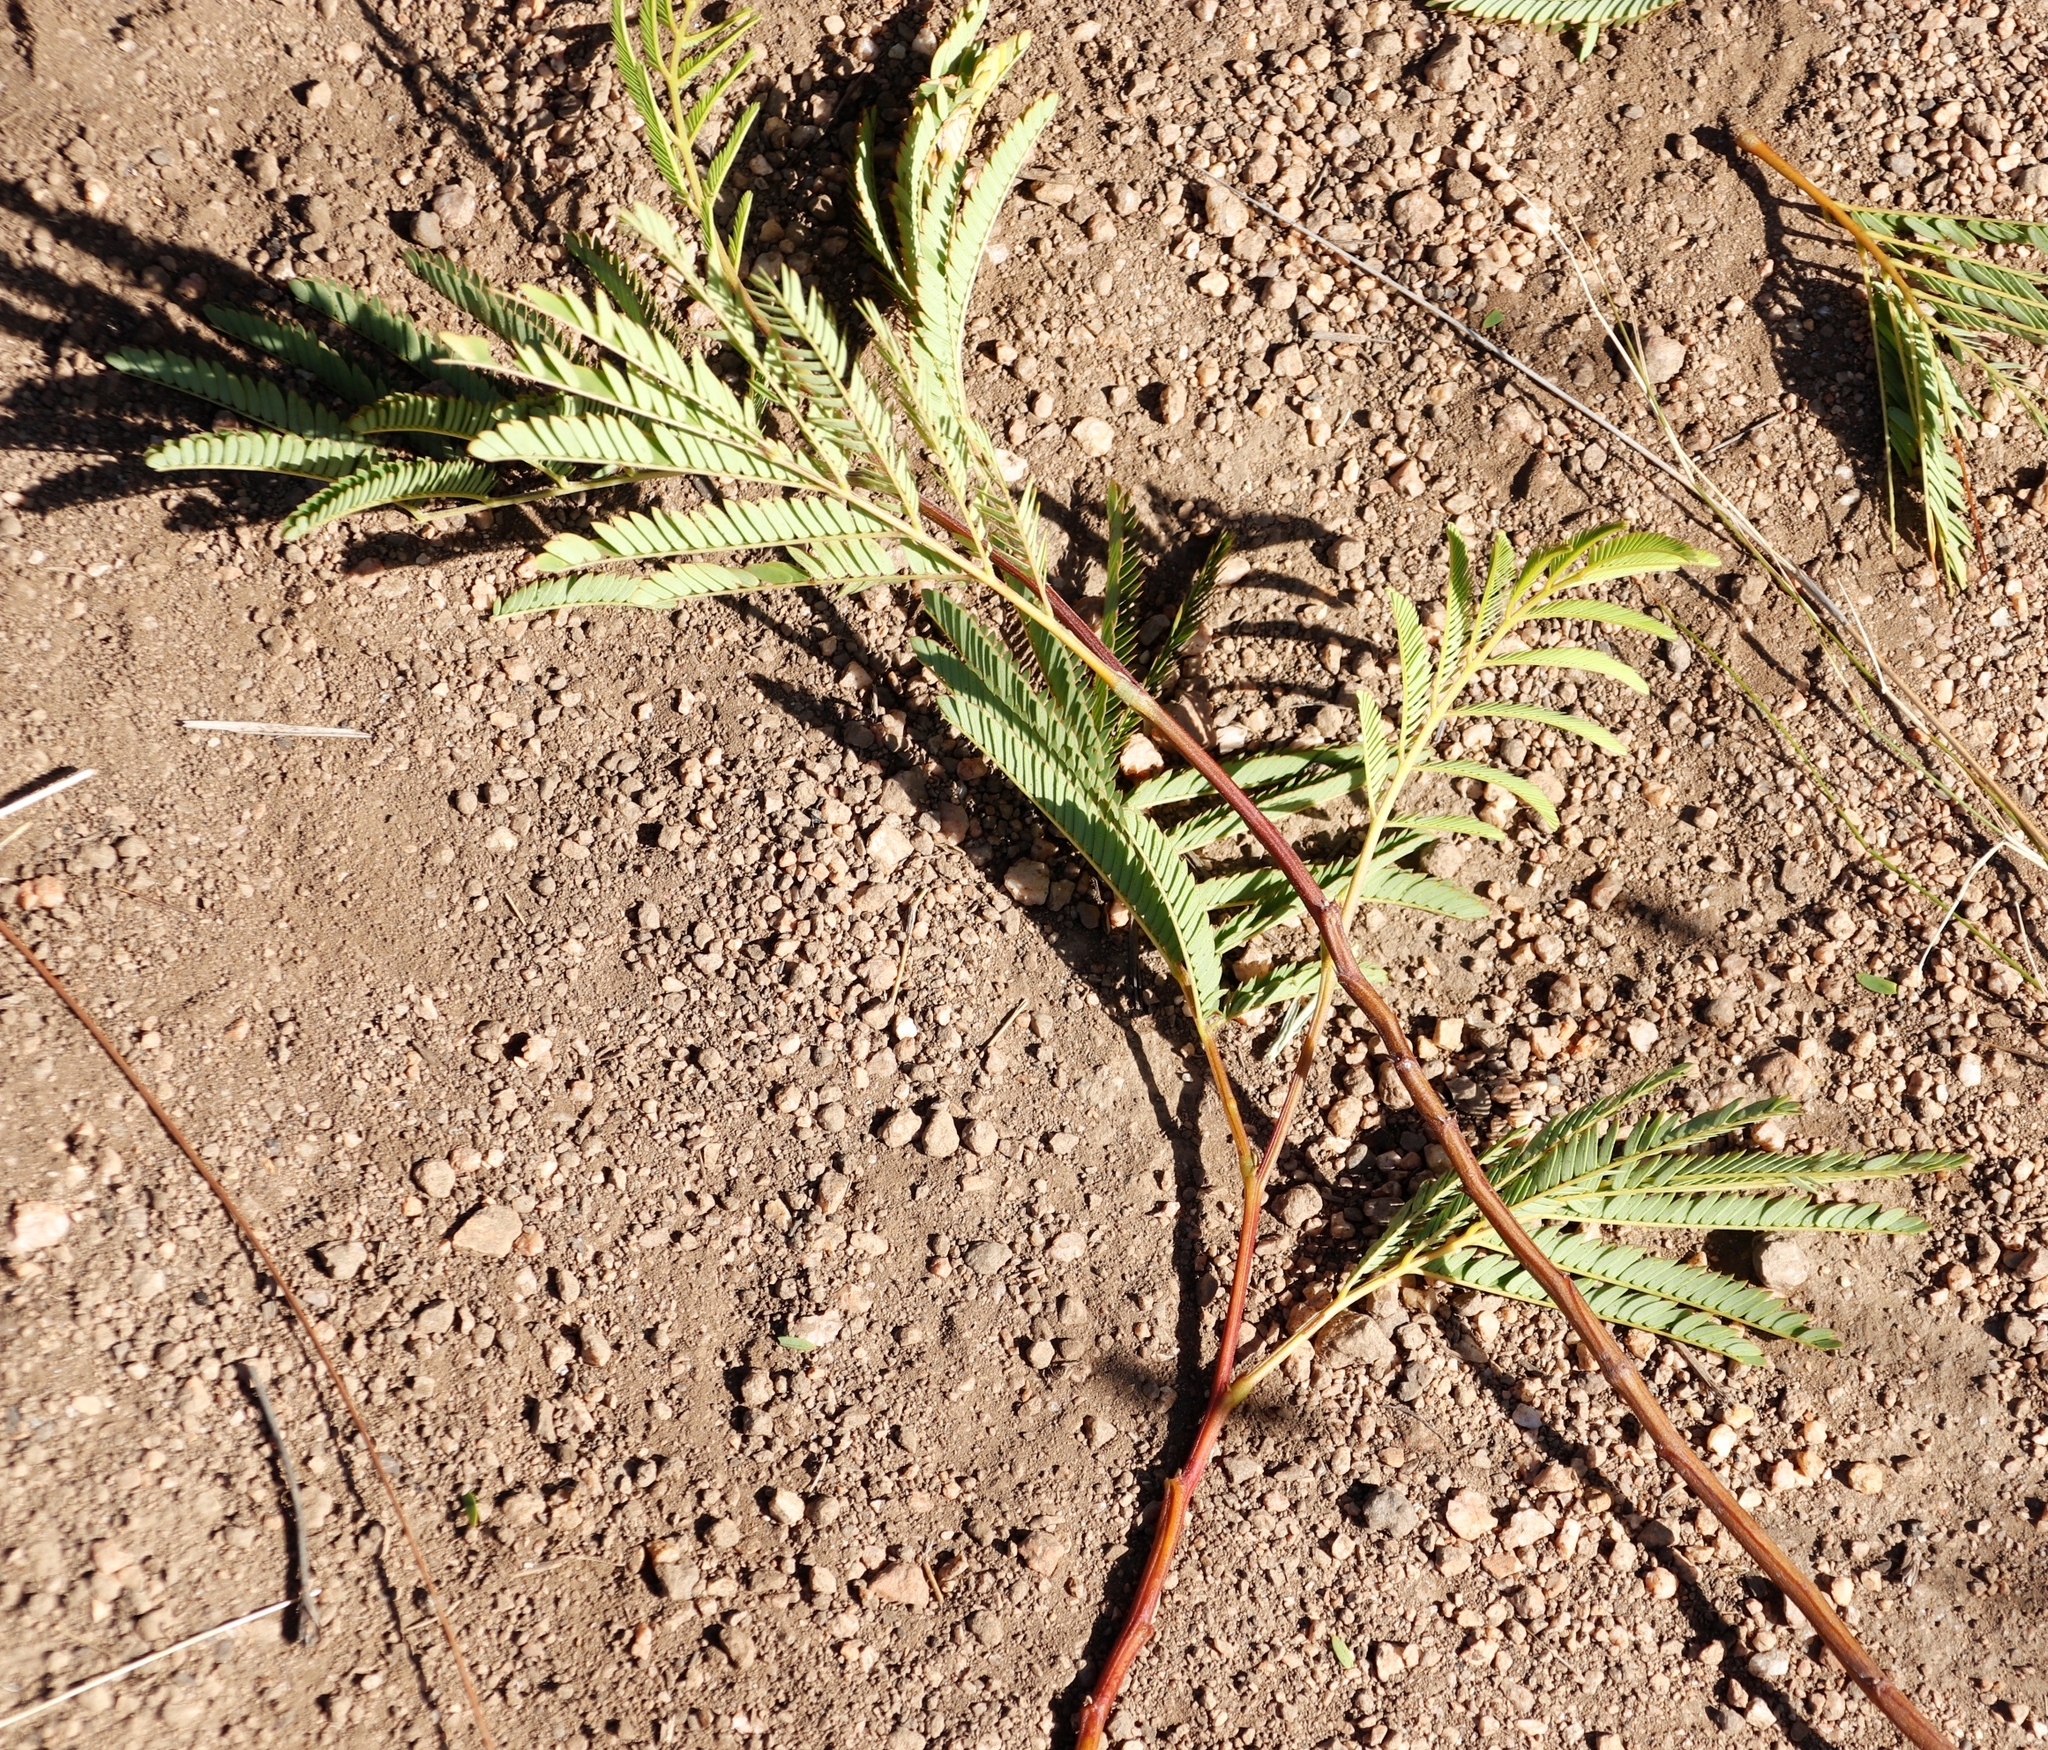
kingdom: Plantae
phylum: Tracheophyta
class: Magnoliopsida
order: Fabales
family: Fabaceae
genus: Paraserianthes
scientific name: Paraserianthes lophantha
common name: Plume albizia
